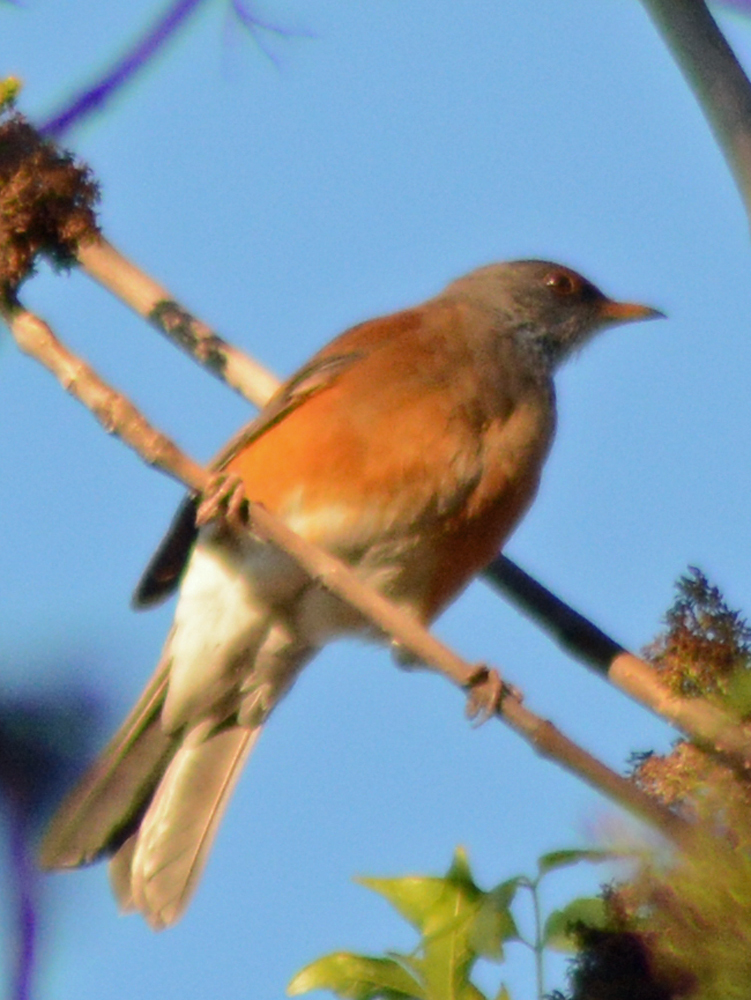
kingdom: Animalia
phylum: Chordata
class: Aves
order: Passeriformes
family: Turdidae
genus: Turdus
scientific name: Turdus rufopalliatus
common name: Rufous-backed robin
